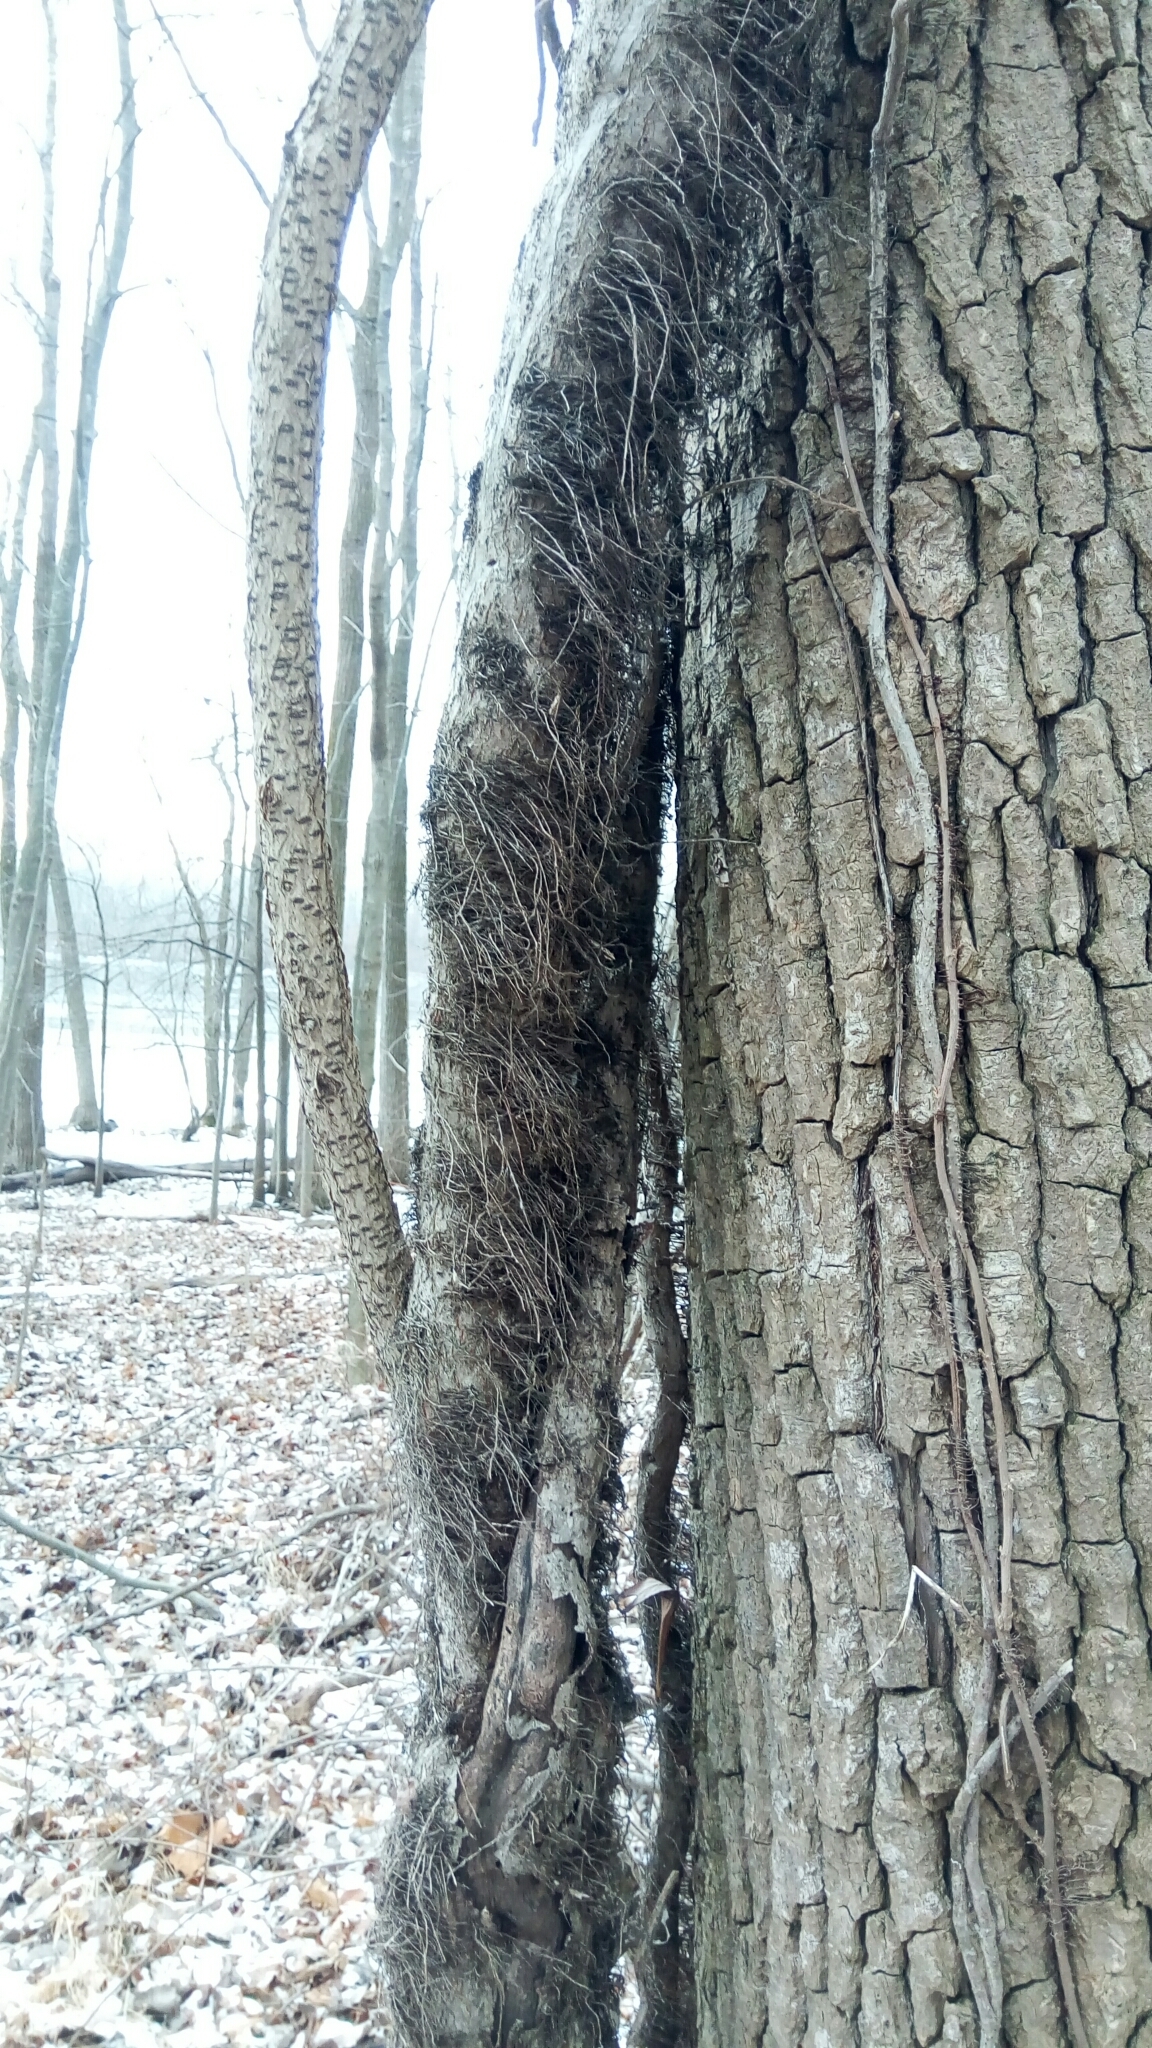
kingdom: Plantae
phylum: Tracheophyta
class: Magnoliopsida
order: Sapindales
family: Anacardiaceae
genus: Toxicodendron
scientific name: Toxicodendron radicans
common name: Poison ivy
